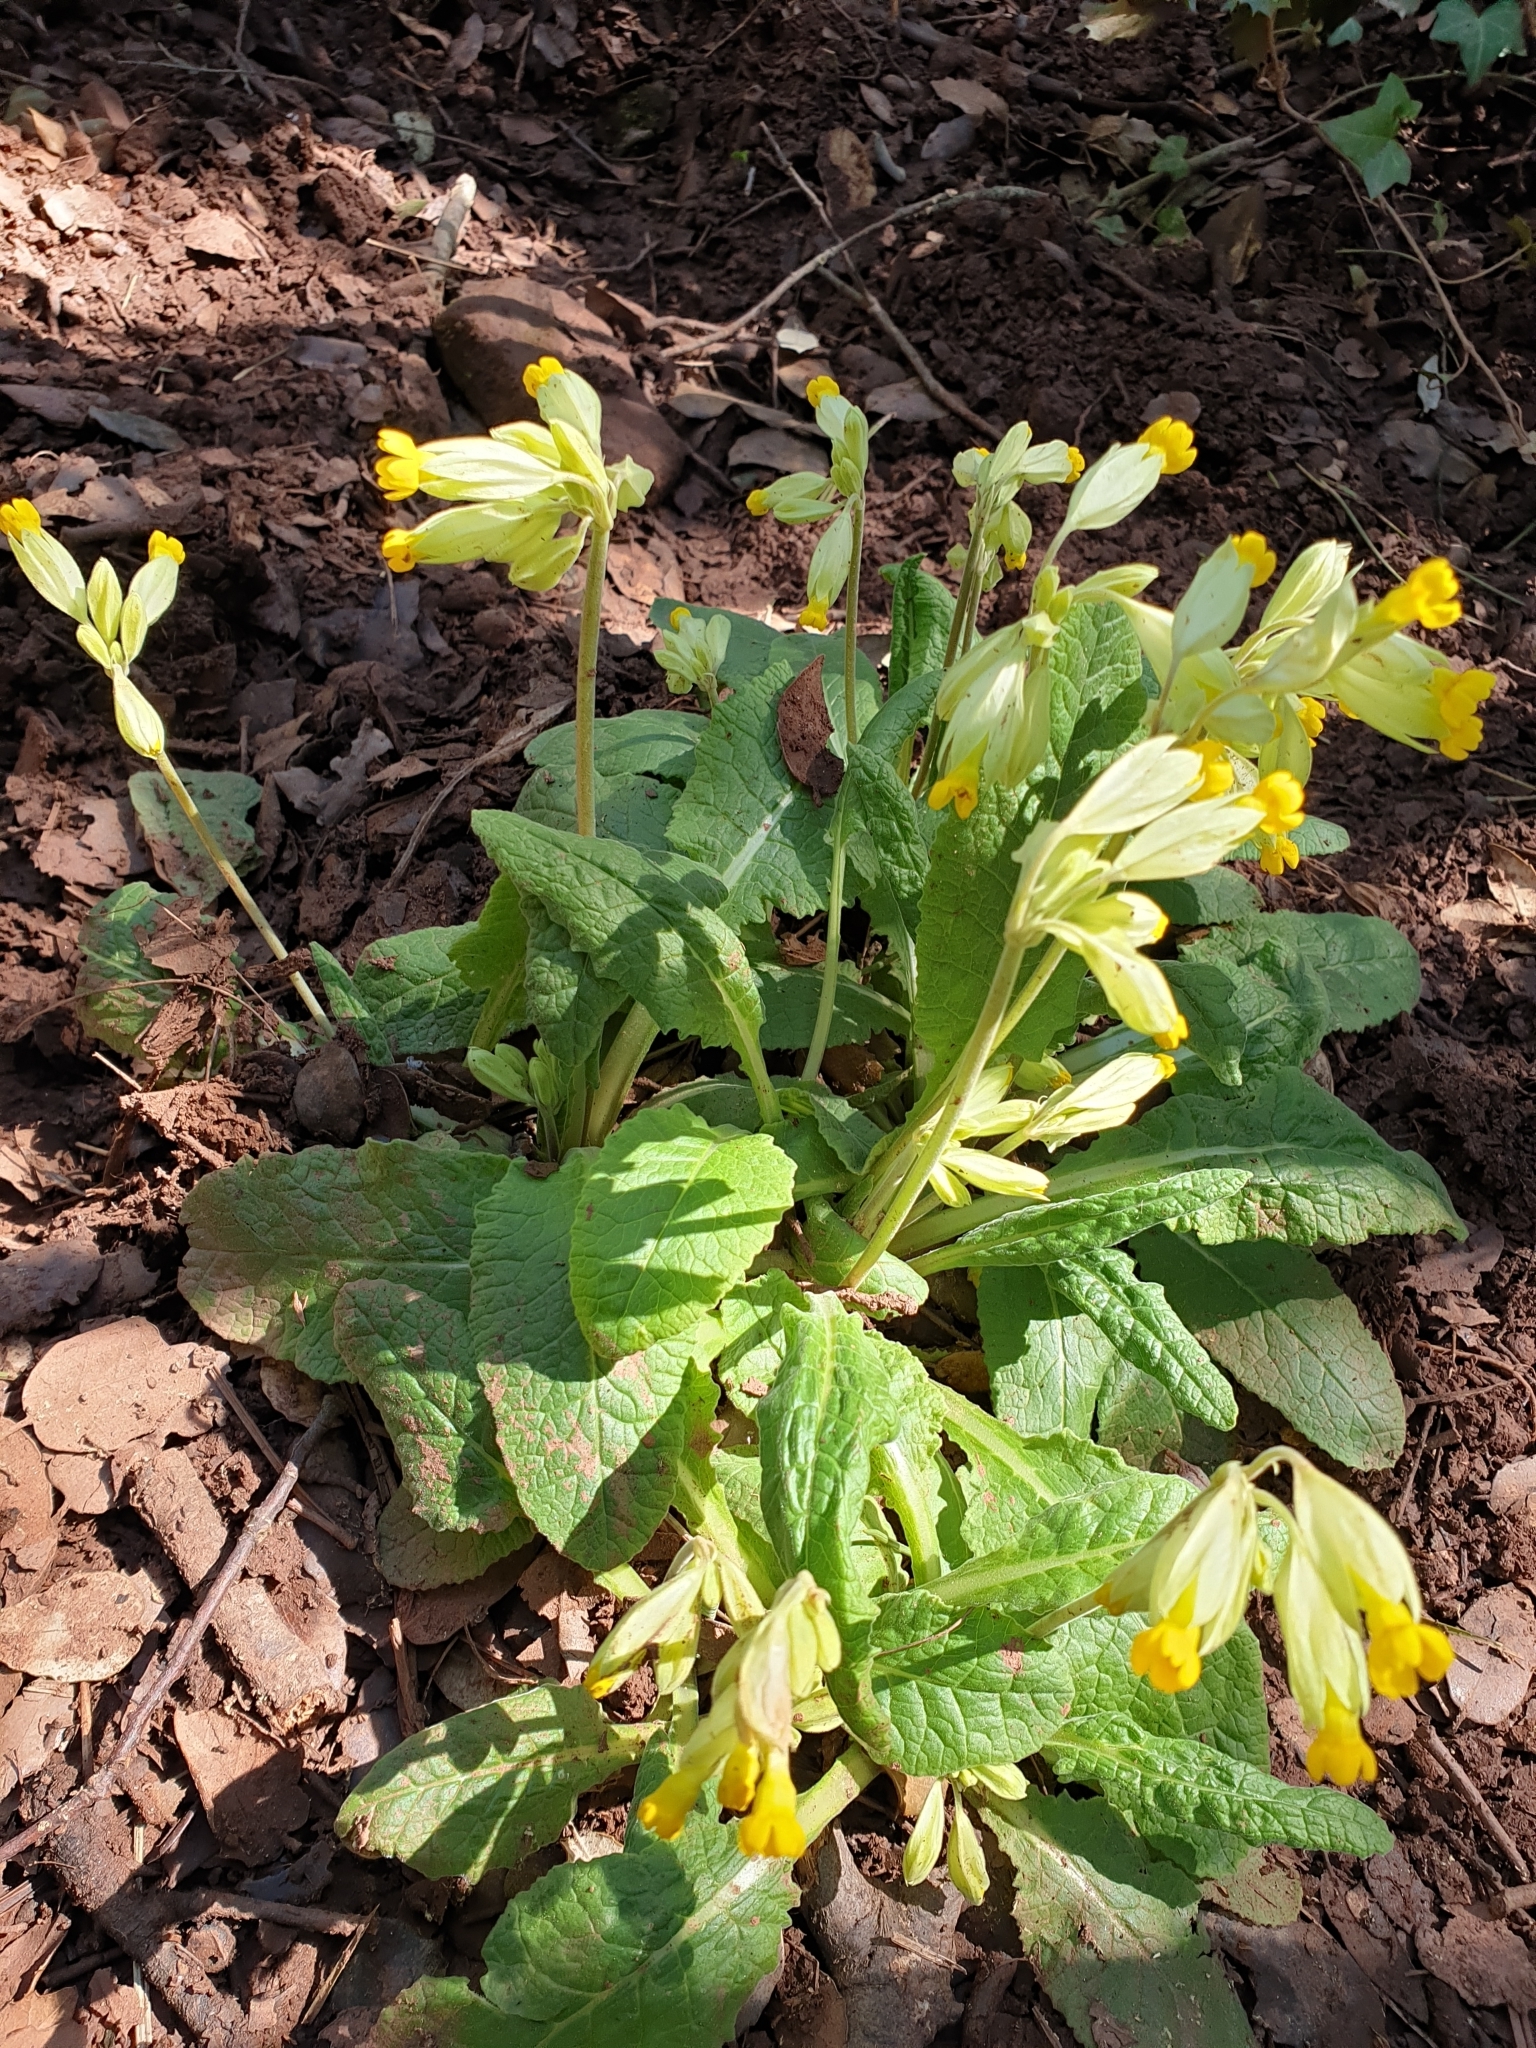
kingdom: Plantae
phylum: Tracheophyta
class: Magnoliopsida
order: Ericales
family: Primulaceae
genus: Primula
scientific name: Primula veris
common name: Cowslip
